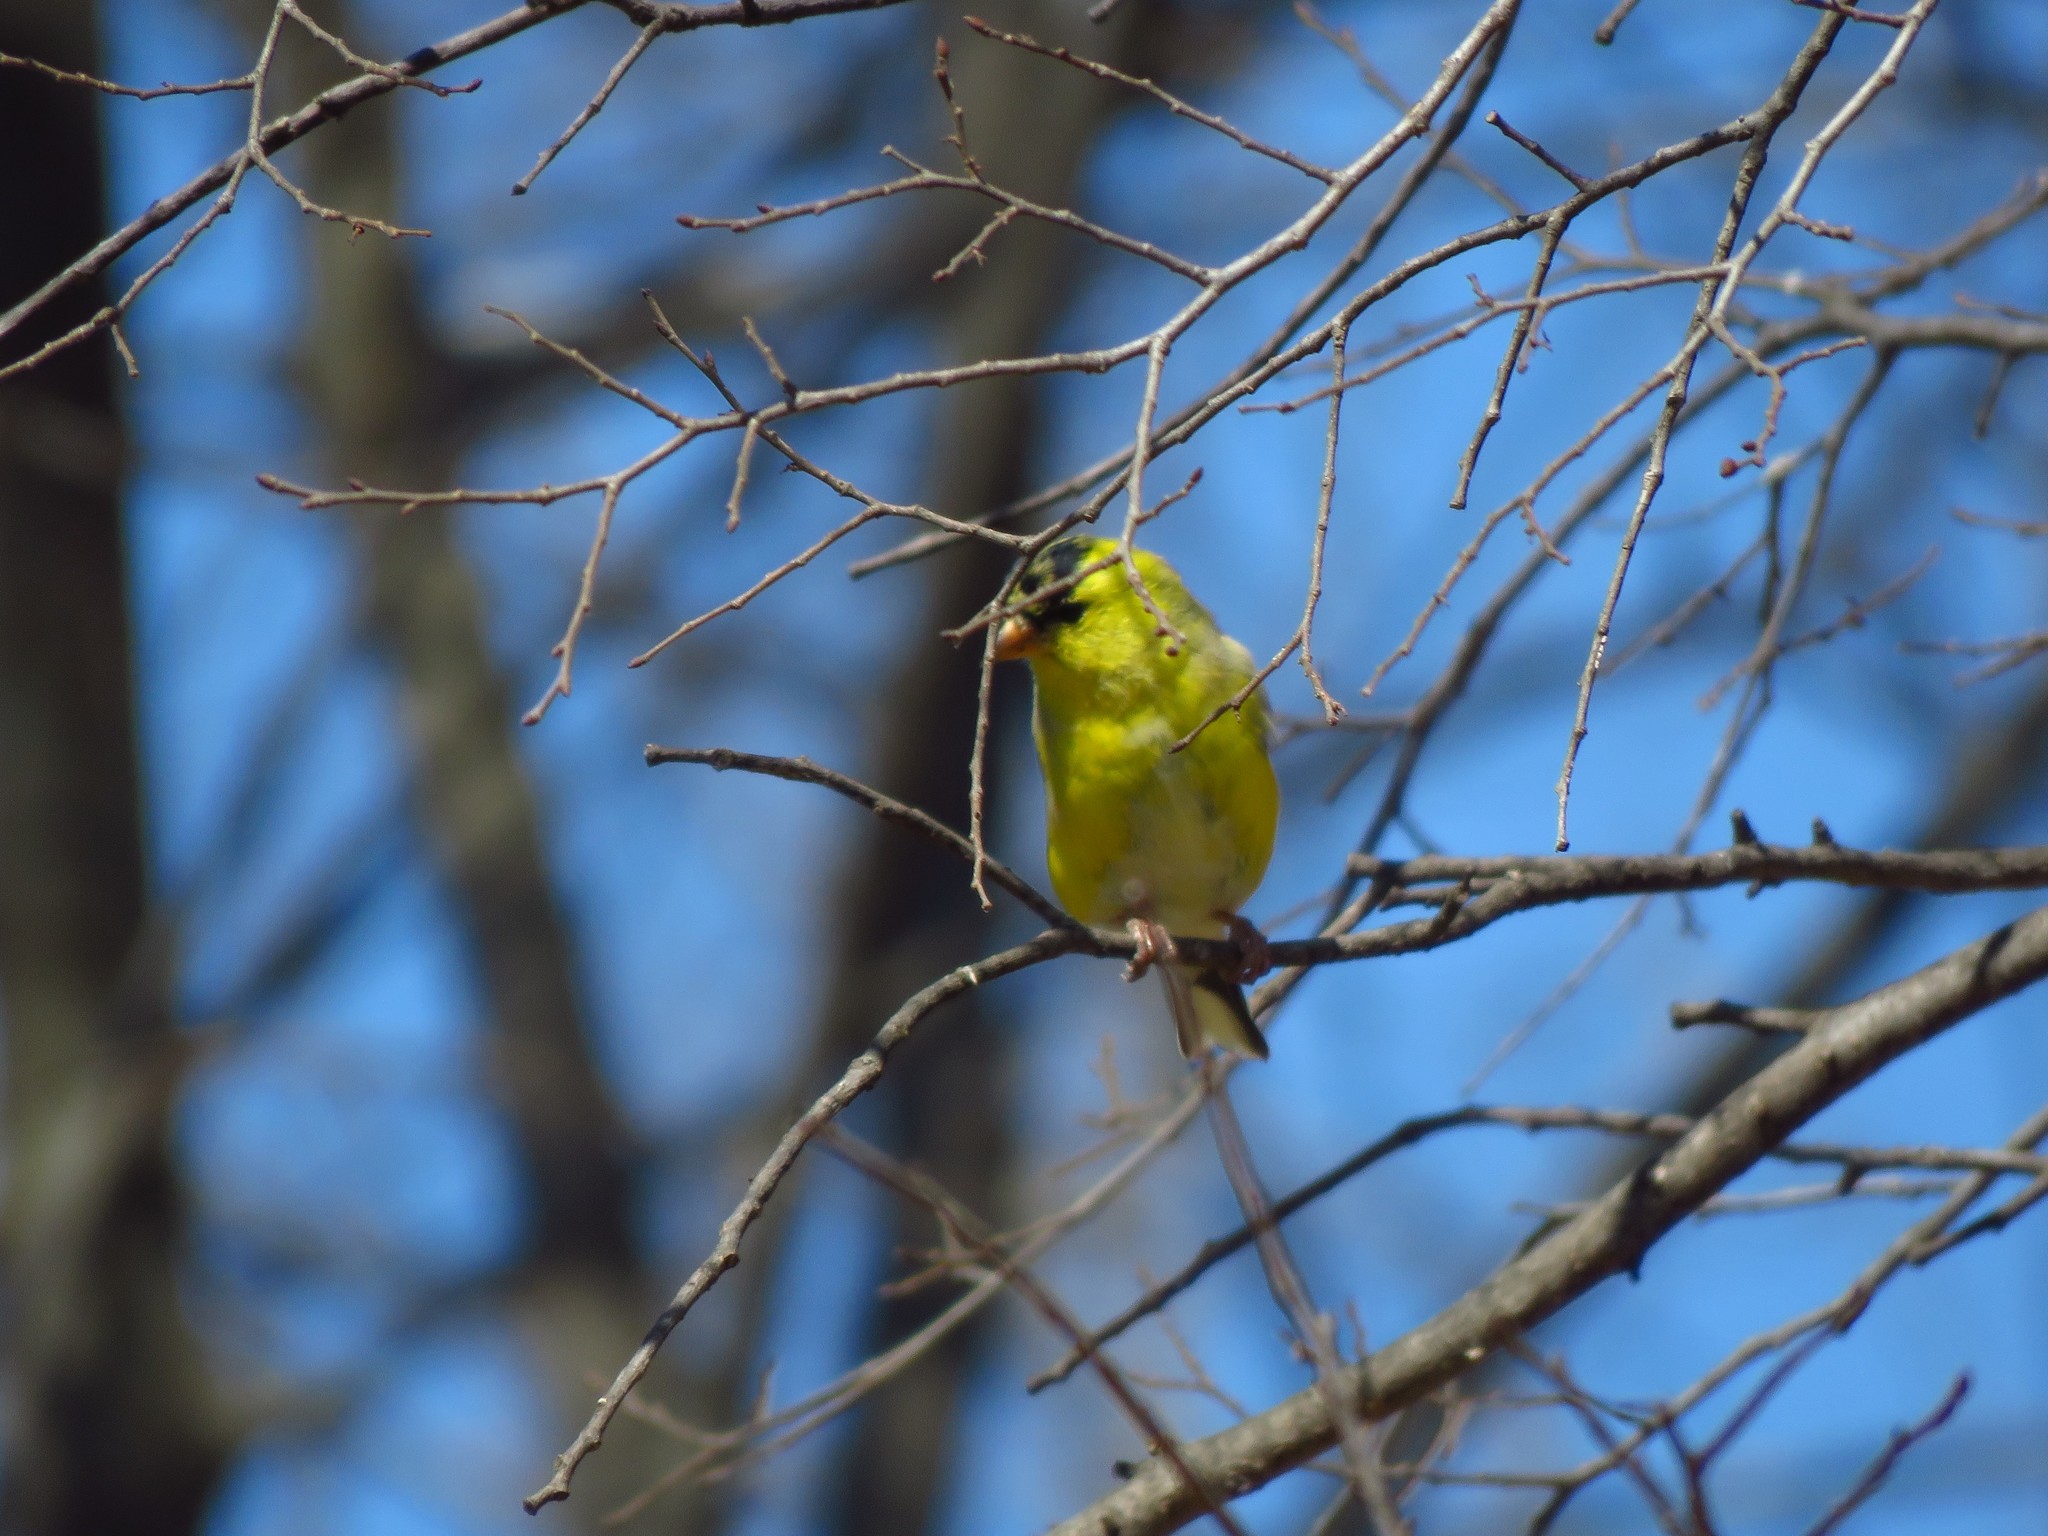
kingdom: Animalia
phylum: Chordata
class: Aves
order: Passeriformes
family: Fringillidae
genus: Spinus
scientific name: Spinus tristis
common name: American goldfinch
